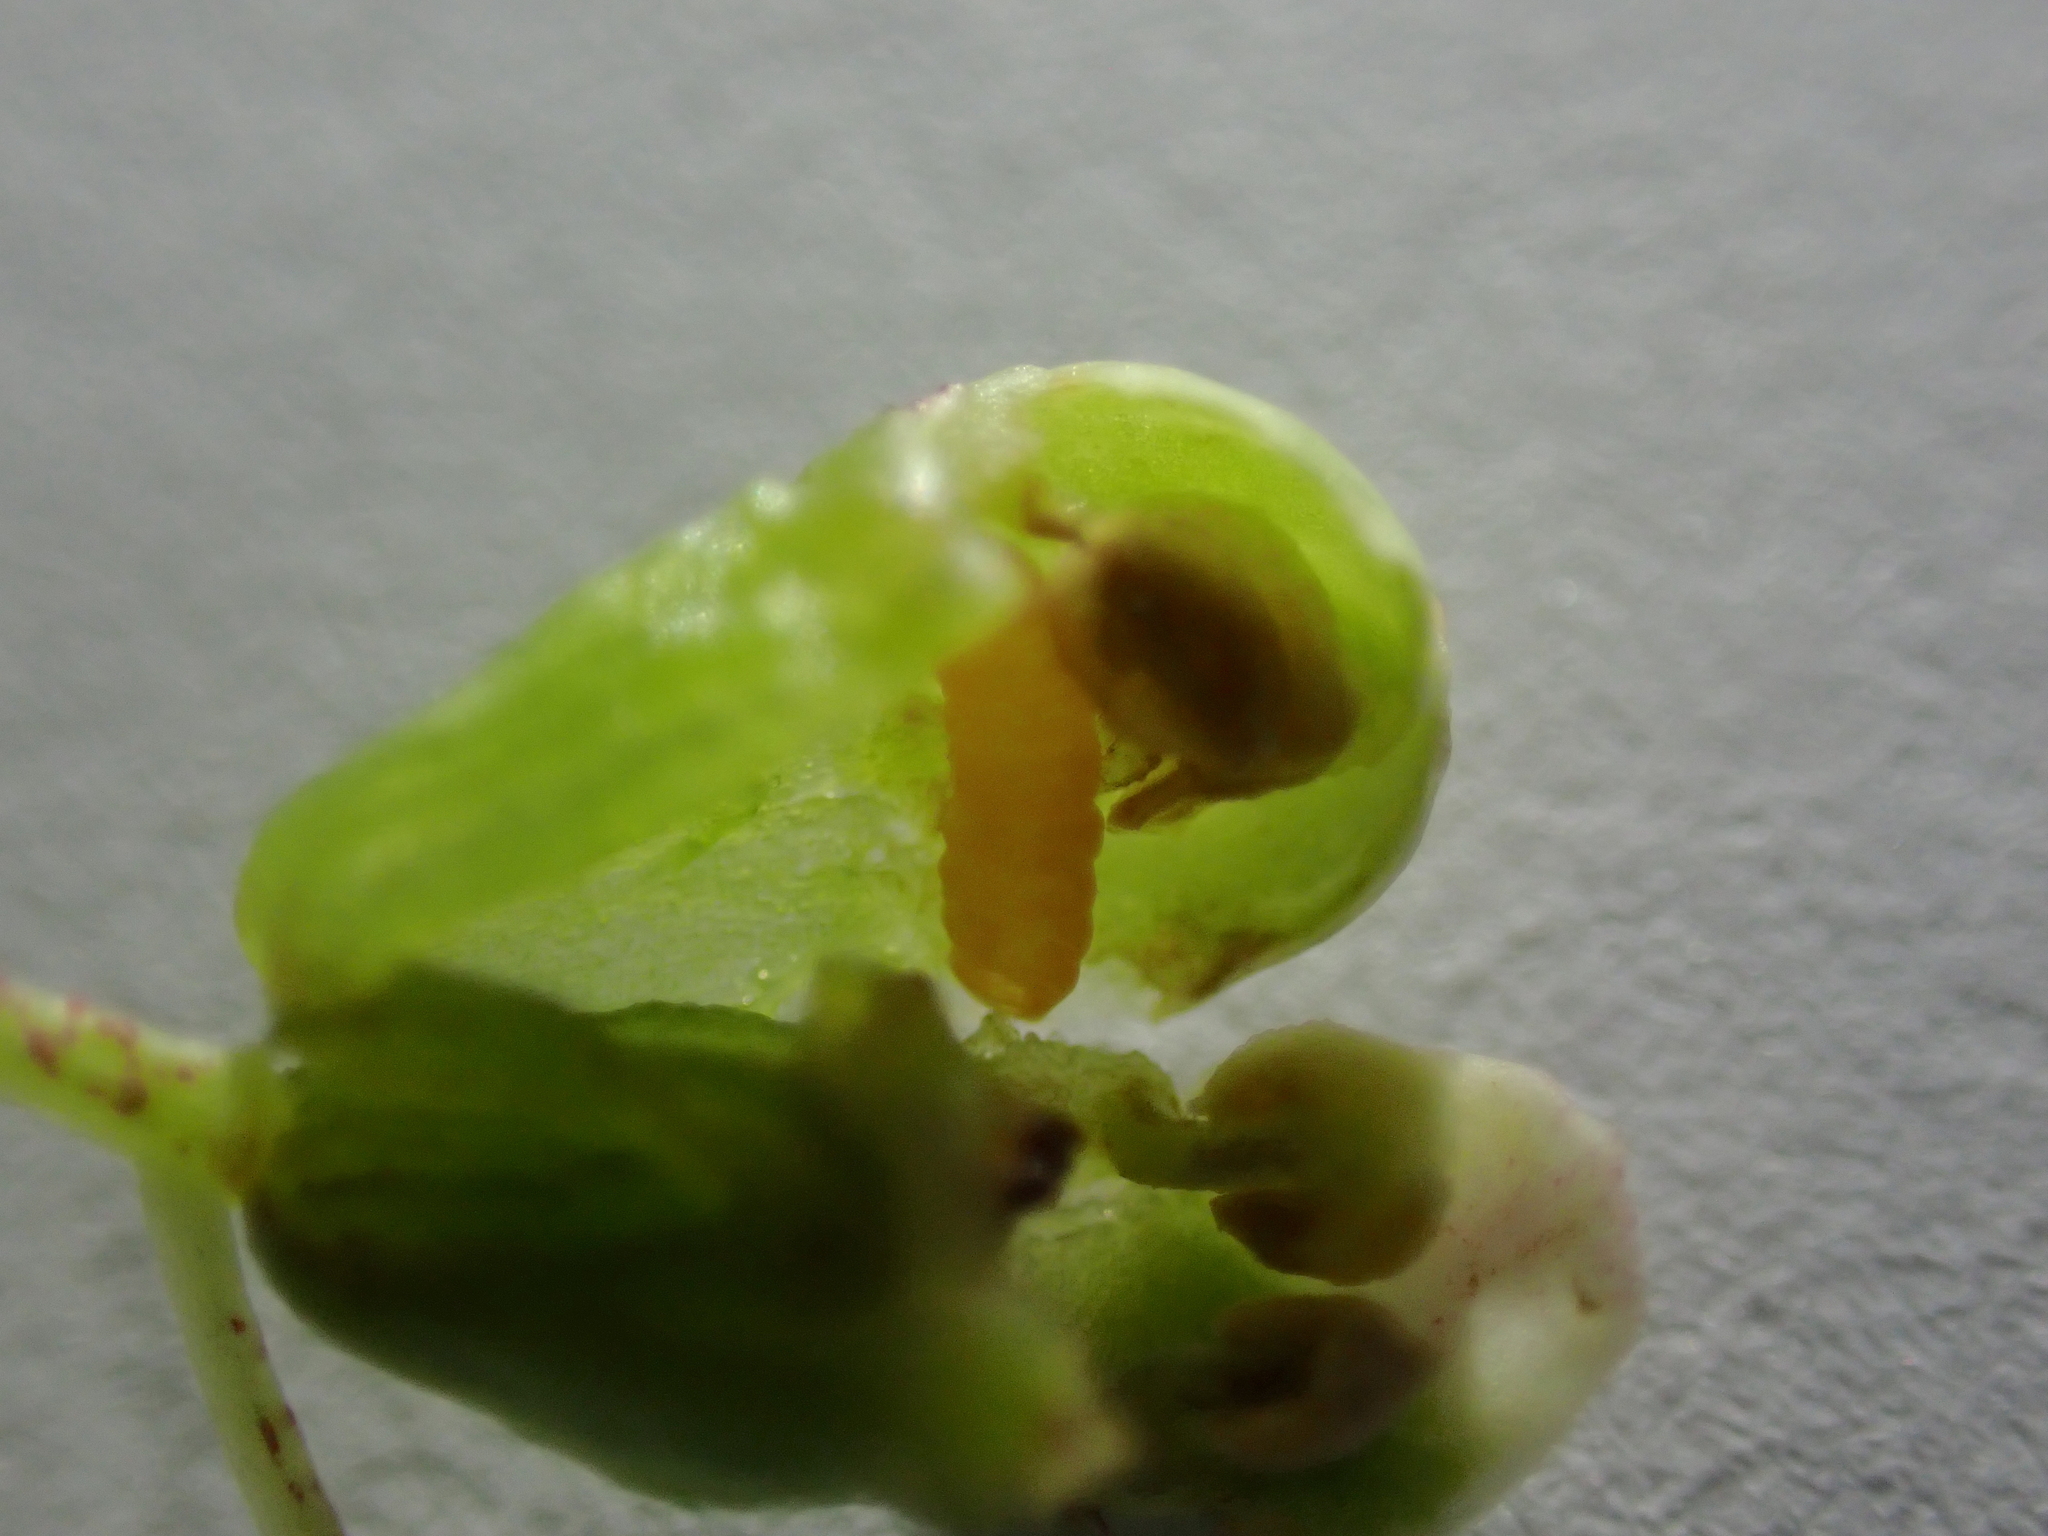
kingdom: Animalia
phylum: Arthropoda
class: Insecta
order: Diptera
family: Cecidomyiidae
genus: Placochela
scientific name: Placochela nigripes
